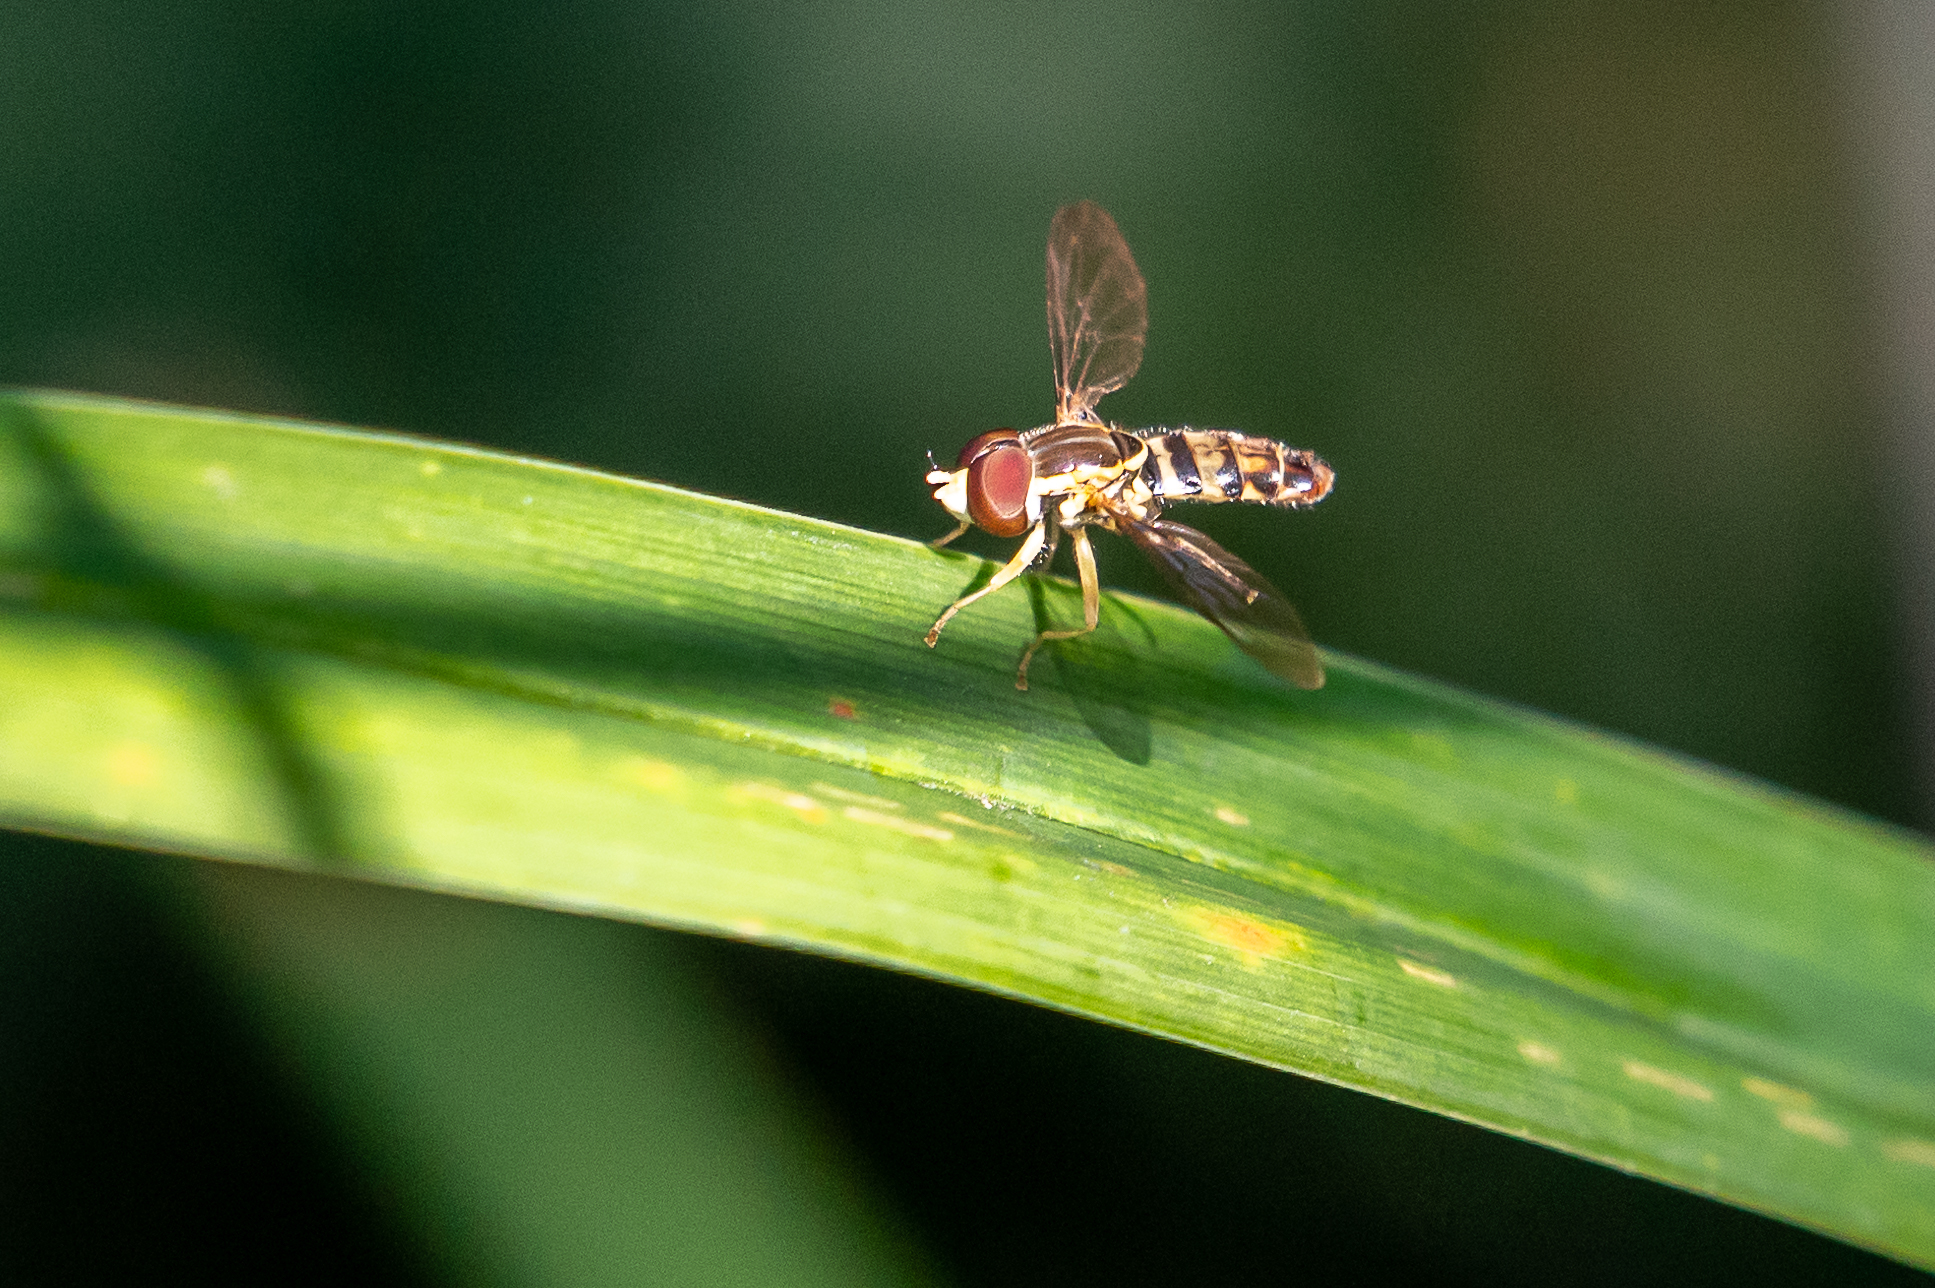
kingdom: Animalia
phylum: Arthropoda
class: Insecta
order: Diptera
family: Syrphidae
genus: Toxomerus
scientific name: Toxomerus geminatus
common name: Eastern calligrapher
